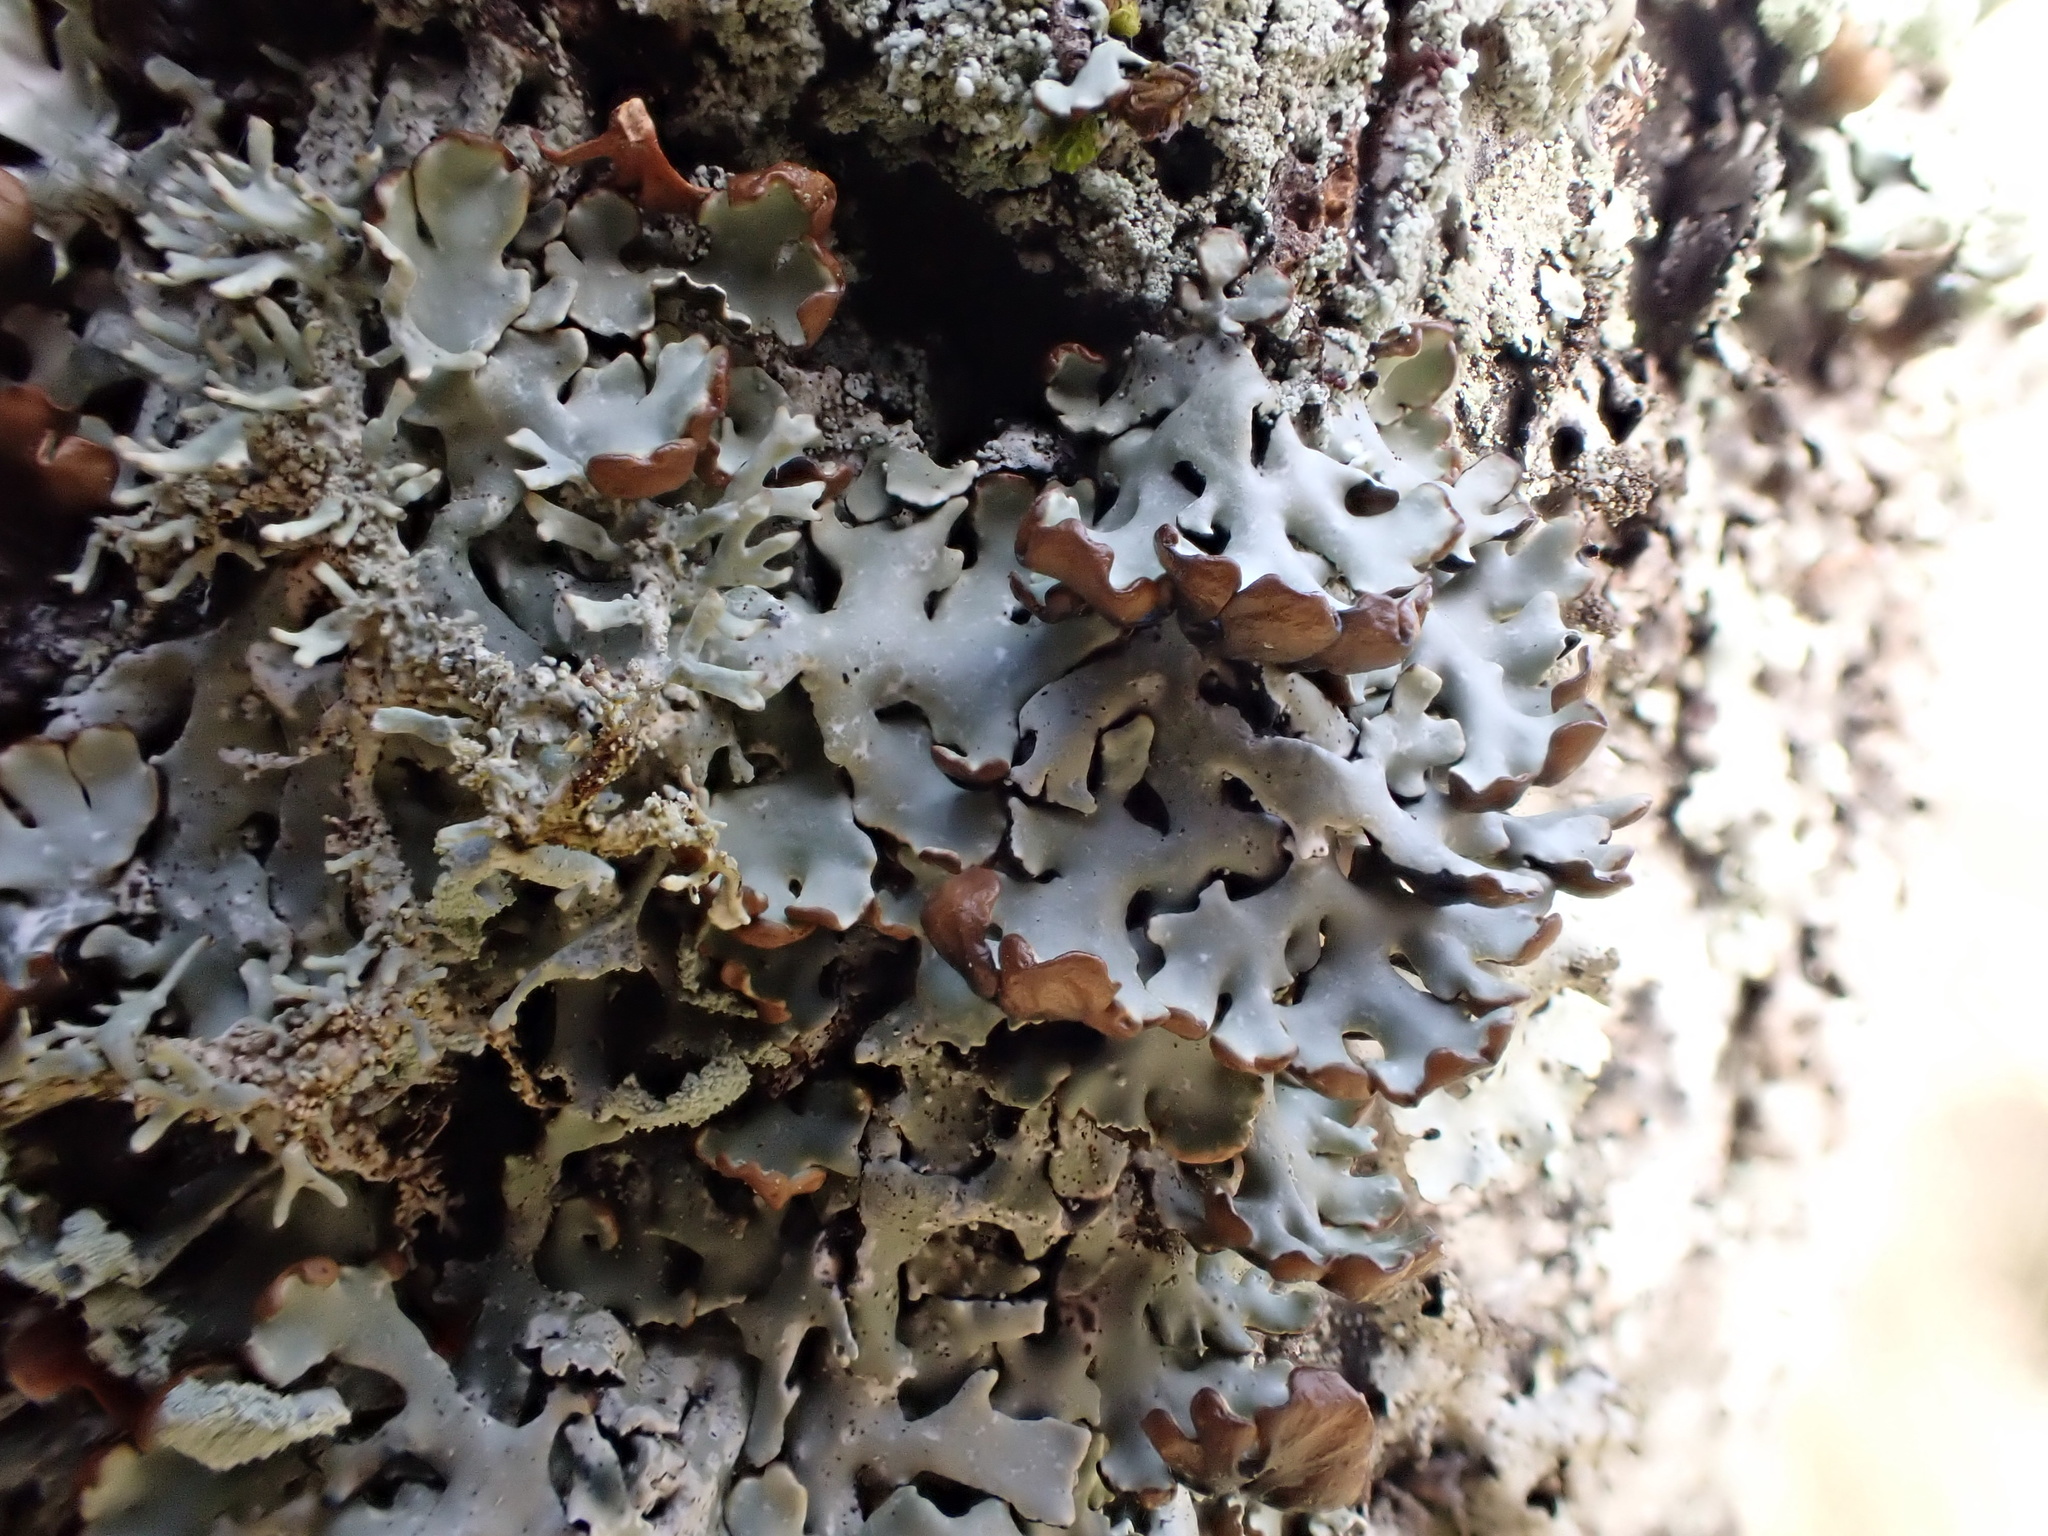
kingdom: Fungi
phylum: Ascomycota
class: Lecanoromycetes
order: Lecanorales
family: Parmeliaceae
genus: Hypogymnia
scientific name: Hypogymnia physodes
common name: Dark crottle
